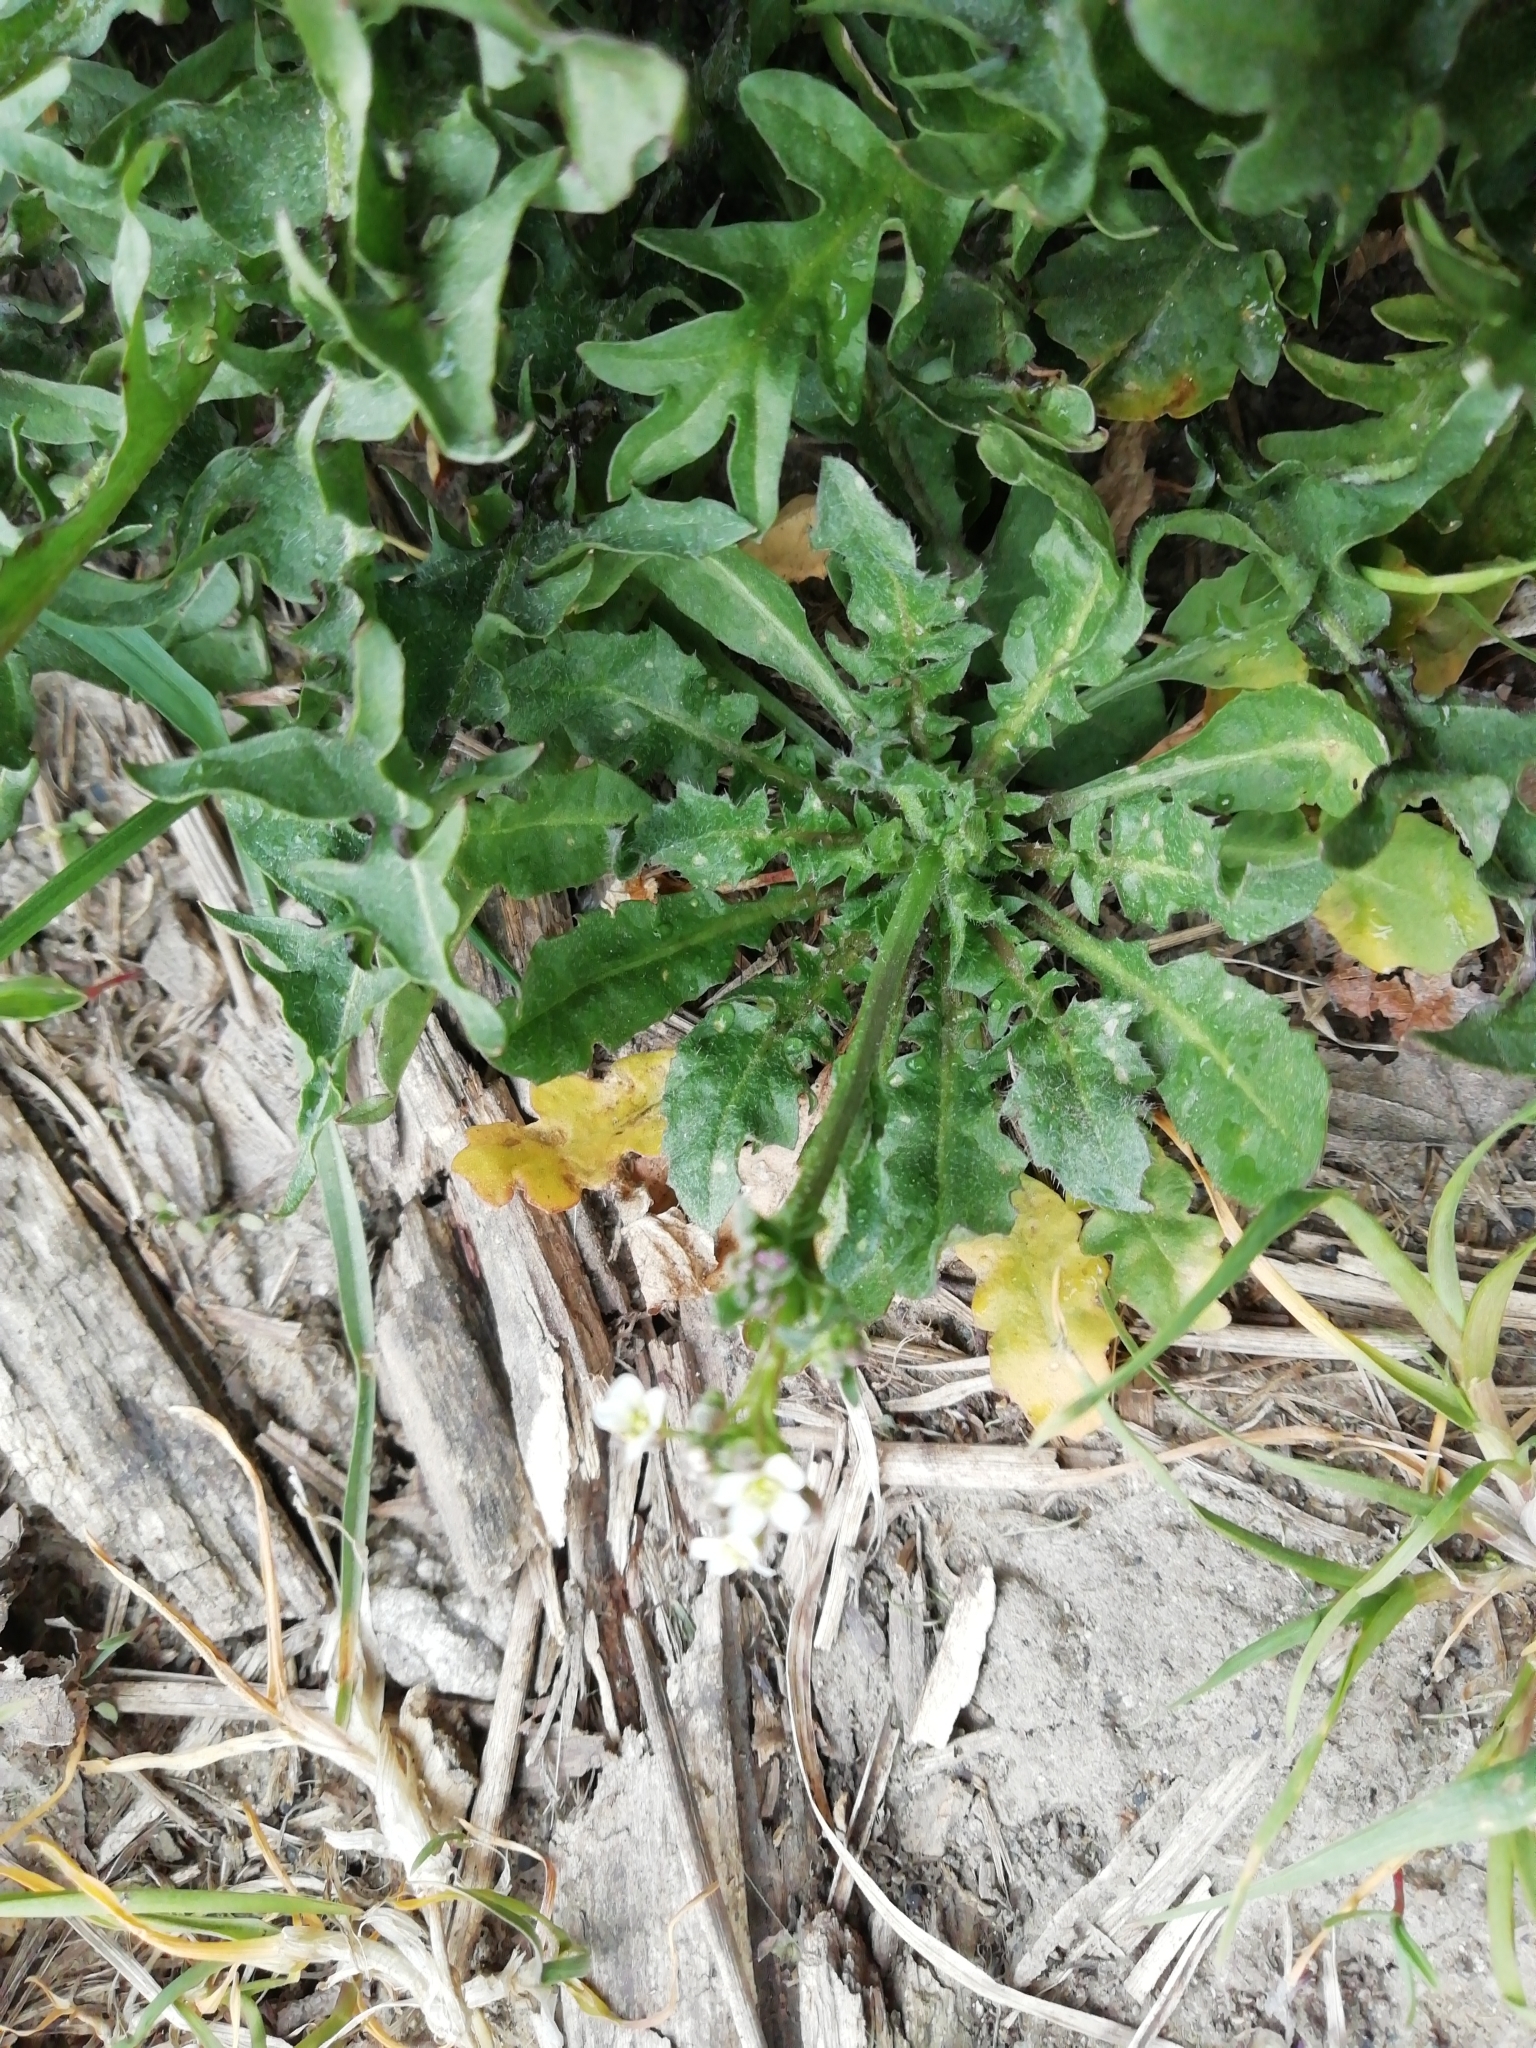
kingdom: Plantae
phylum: Tracheophyta
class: Magnoliopsida
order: Brassicales
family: Brassicaceae
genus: Capsella
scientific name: Capsella bursa-pastoris
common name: Shepherd's purse
